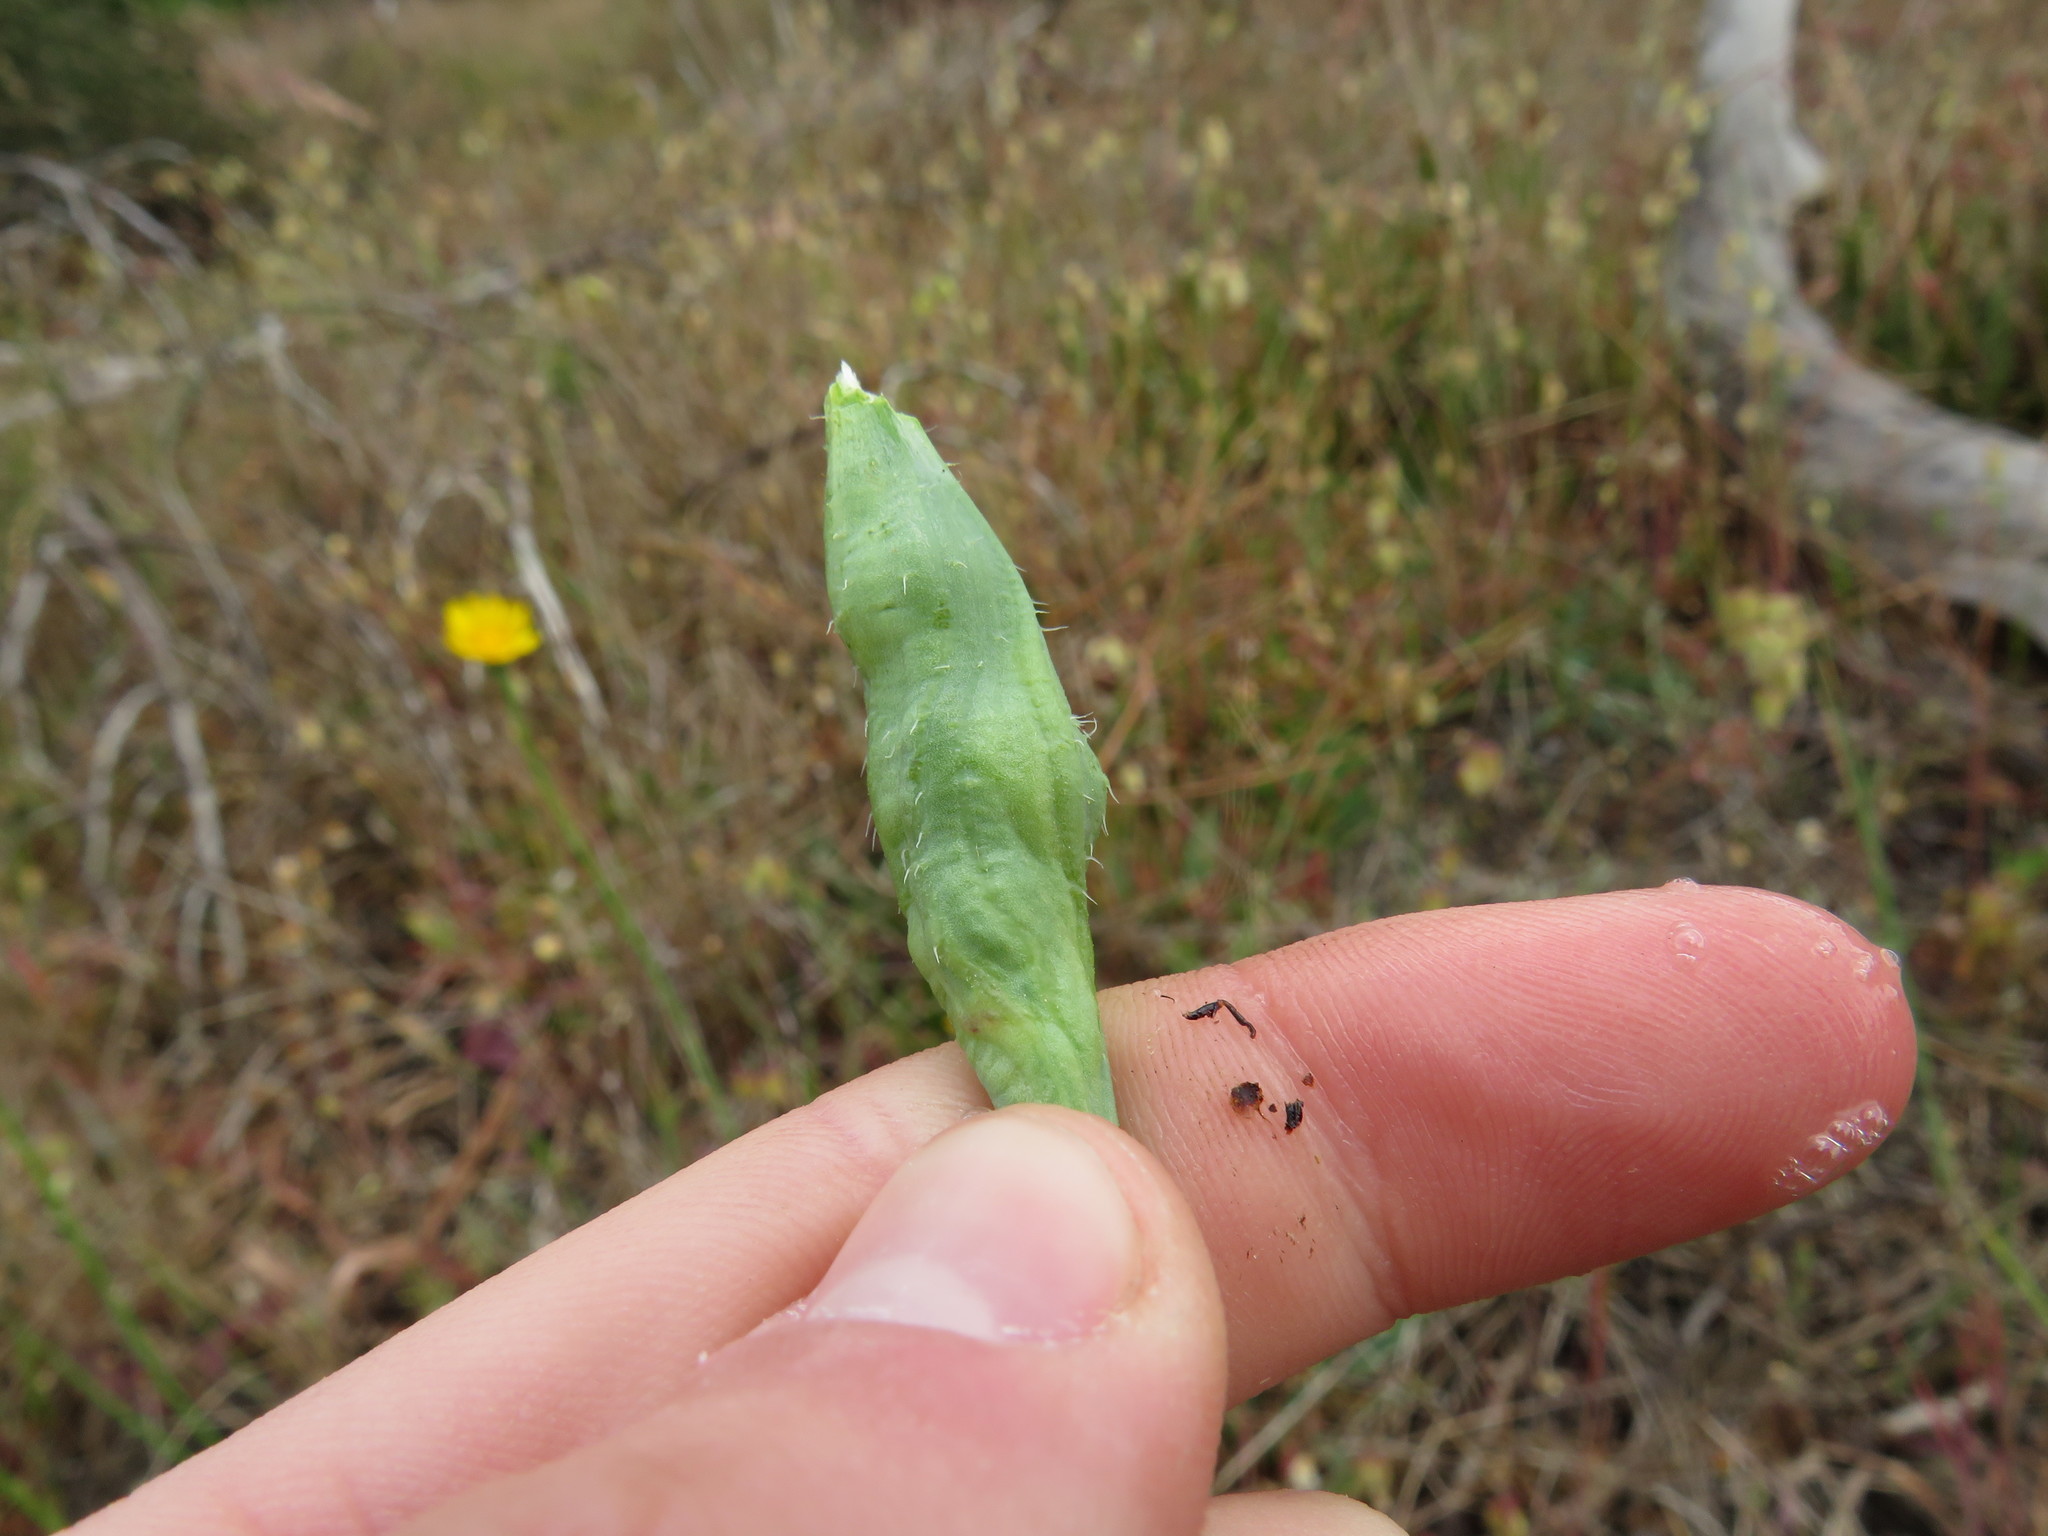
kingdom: Animalia
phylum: Arthropoda
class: Insecta
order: Hymenoptera
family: Cynipidae
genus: Phanacis
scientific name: Phanacis hypochoeridis
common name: Gall wasp
